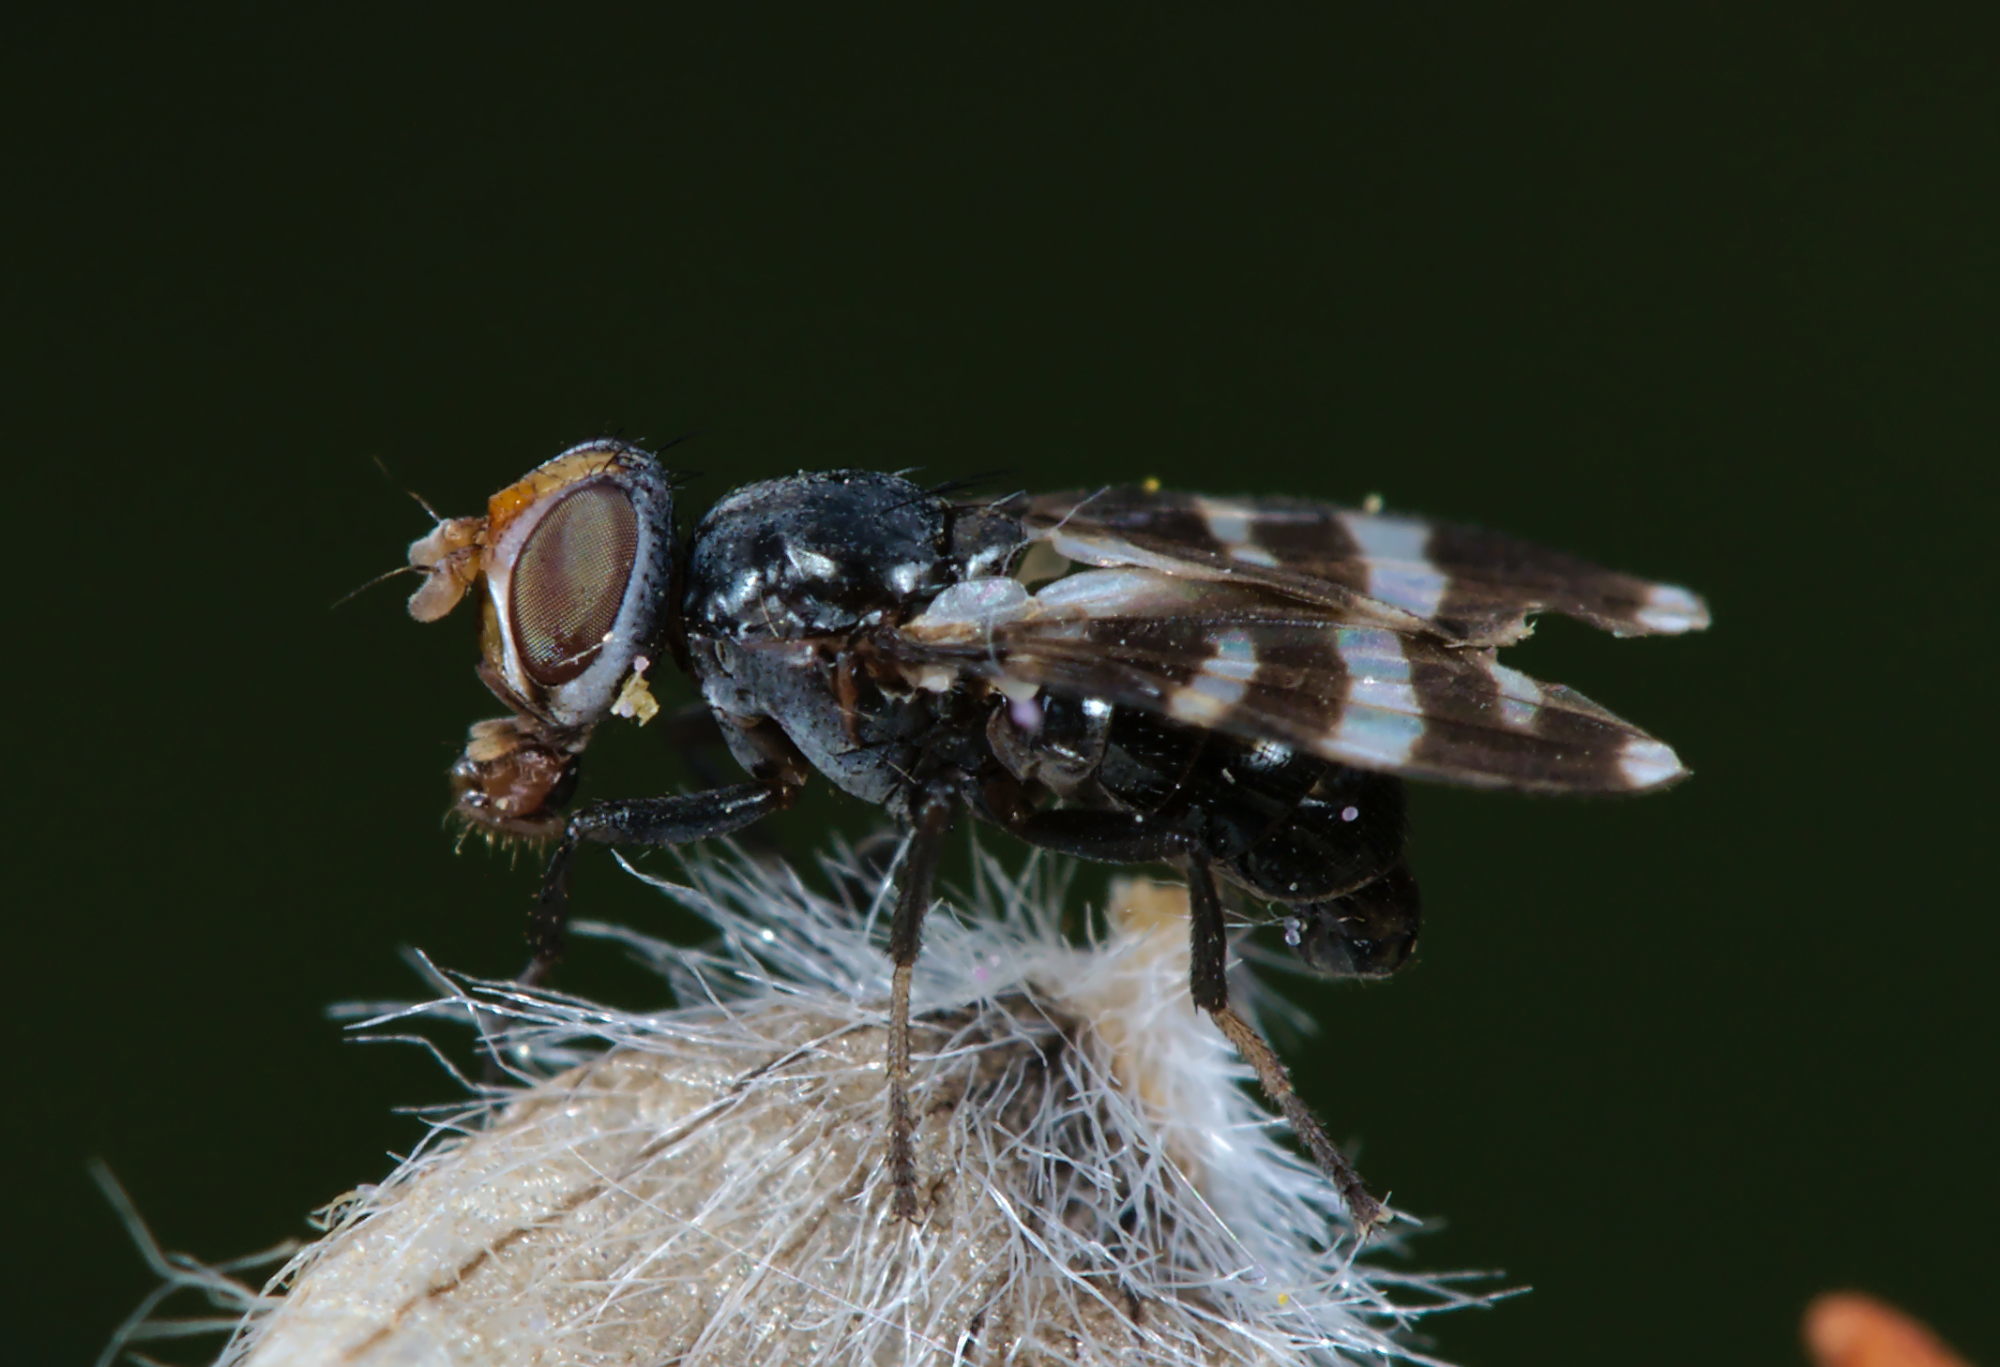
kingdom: Animalia
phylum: Arthropoda
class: Insecta
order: Diptera
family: Ulidiidae
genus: Herina
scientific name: Herina frondescentiae
